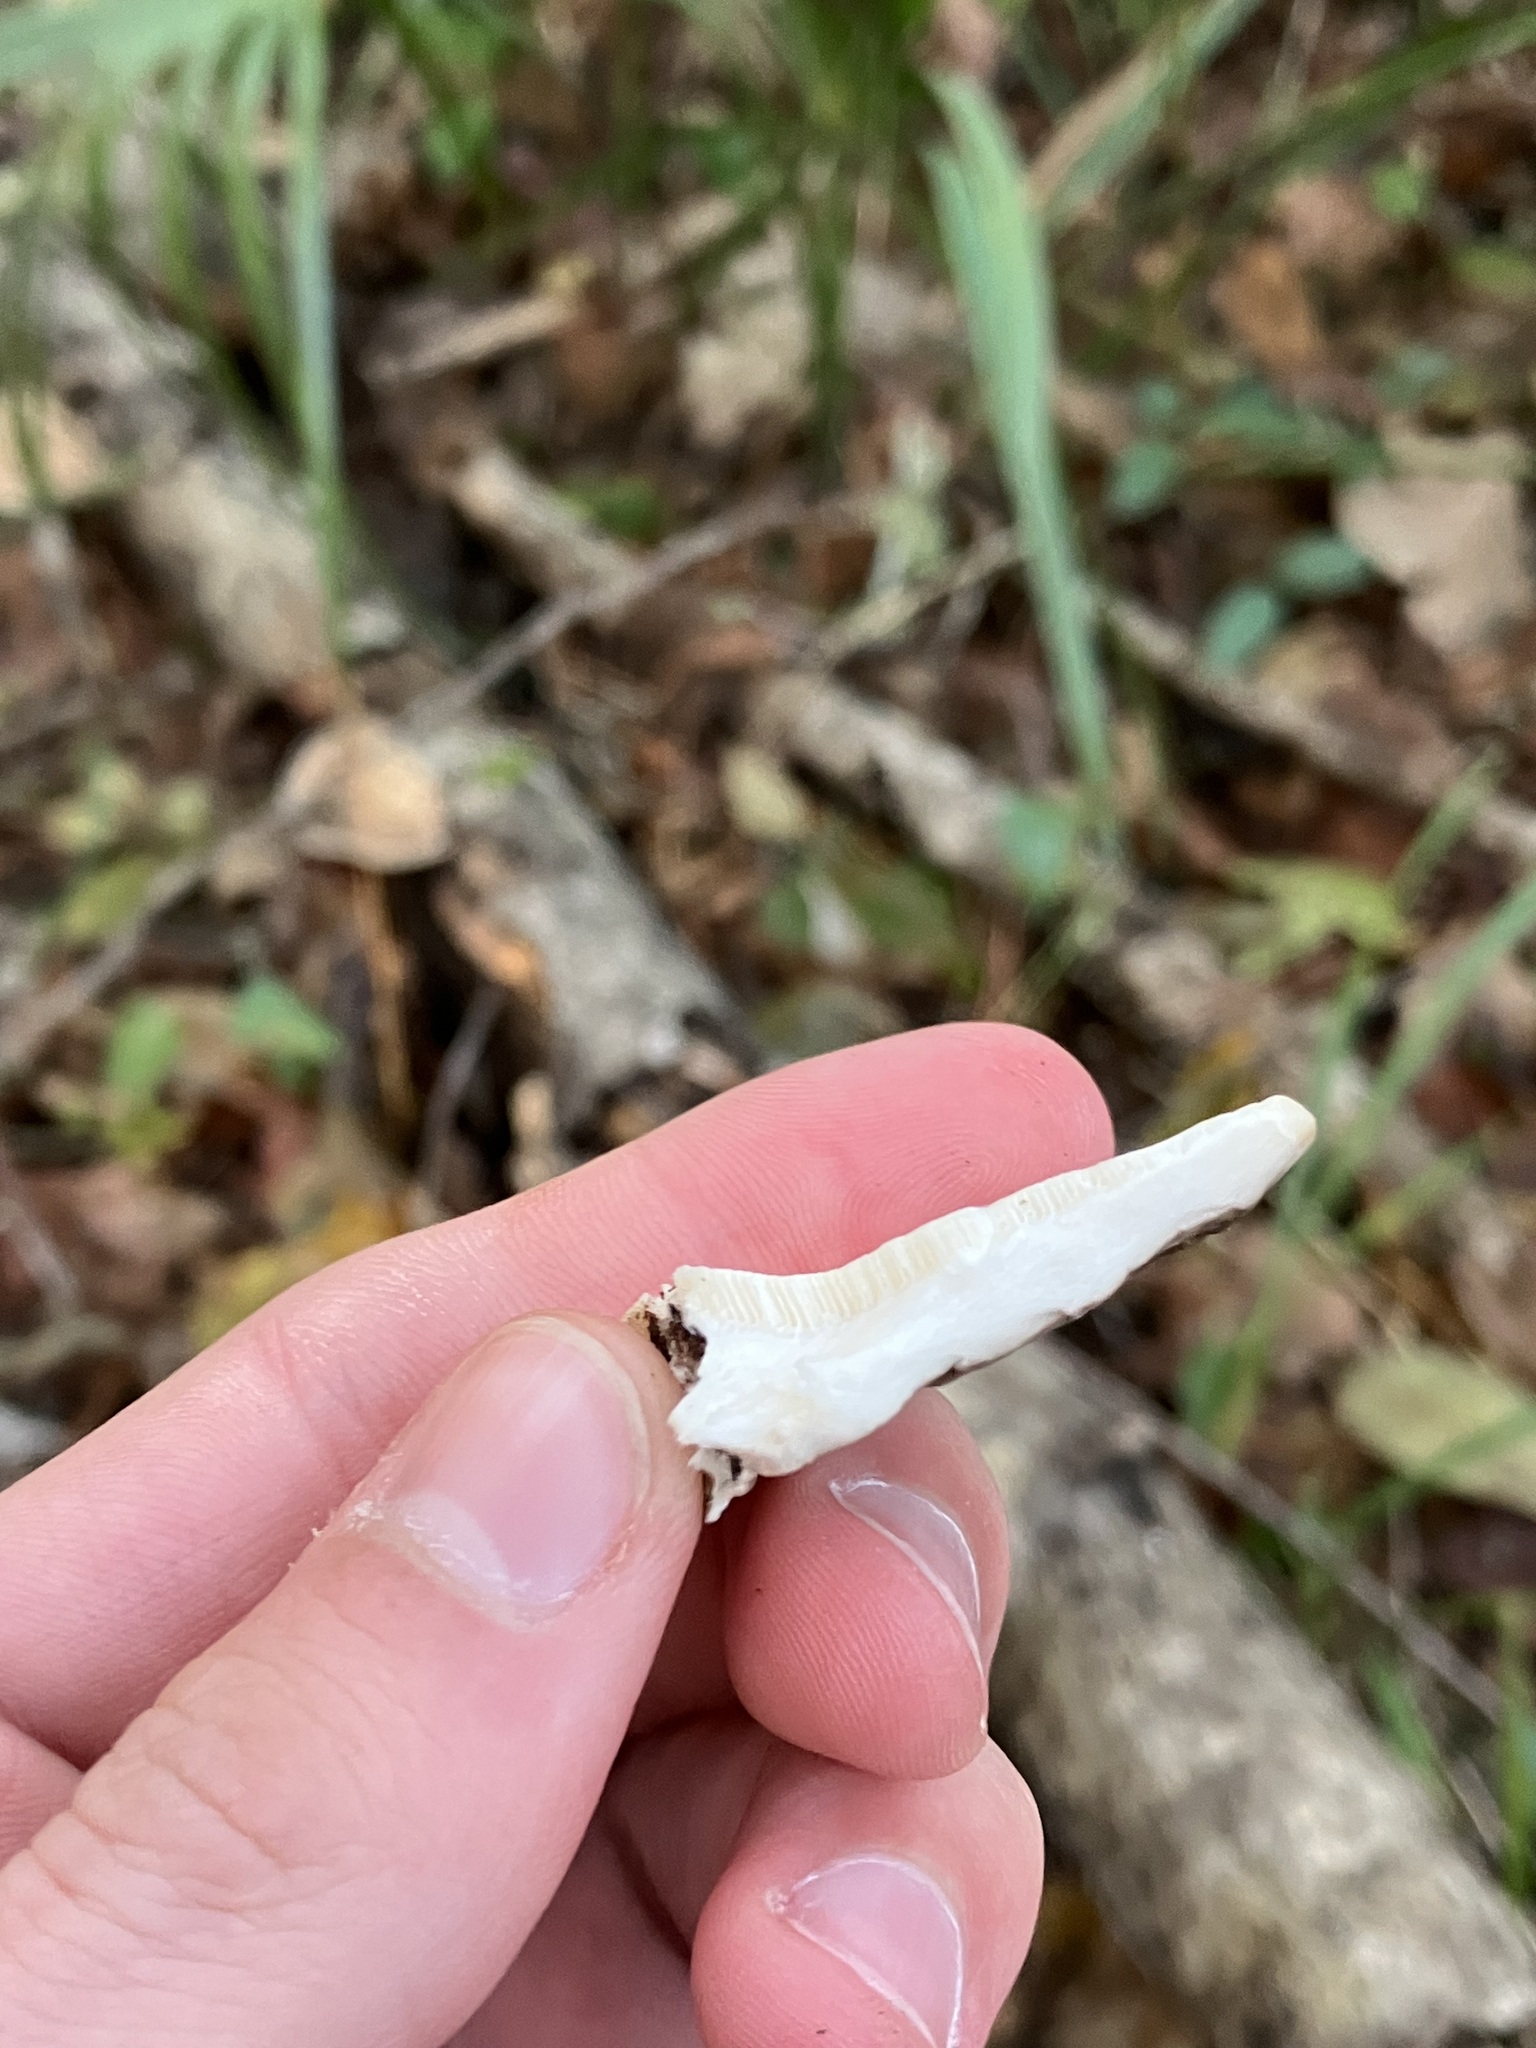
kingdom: Fungi
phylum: Basidiomycota
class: Agaricomycetes
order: Polyporales
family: Polyporaceae
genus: Trametes
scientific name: Trametes lactinea
